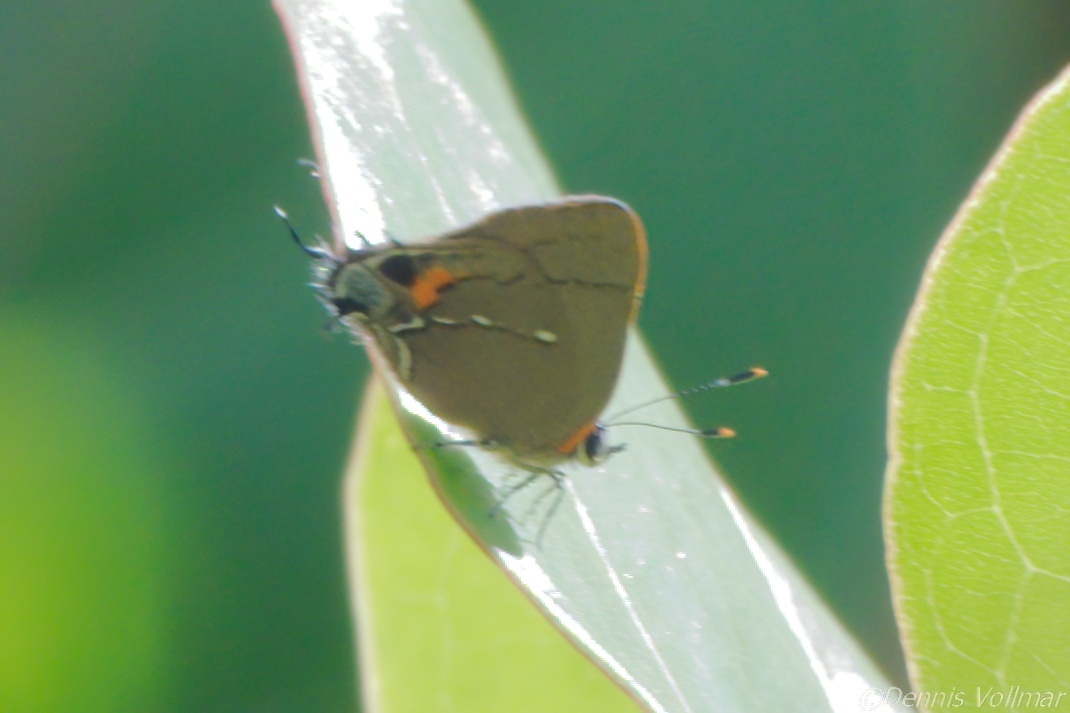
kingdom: Animalia
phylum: Arthropoda
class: Insecta
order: Lepidoptera
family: Lycaenidae
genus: Thecla
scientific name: Thecla angelia
